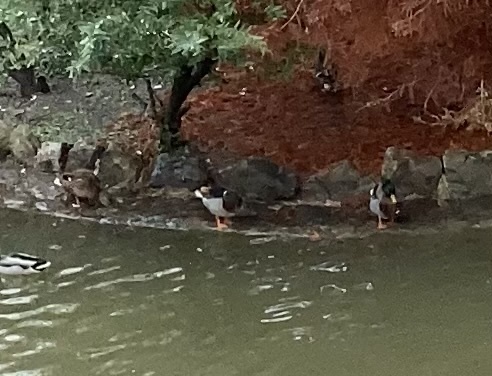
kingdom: Animalia
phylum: Chordata
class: Aves
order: Anseriformes
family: Anatidae
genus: Anas
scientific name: Anas platyrhynchos
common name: Mallard
